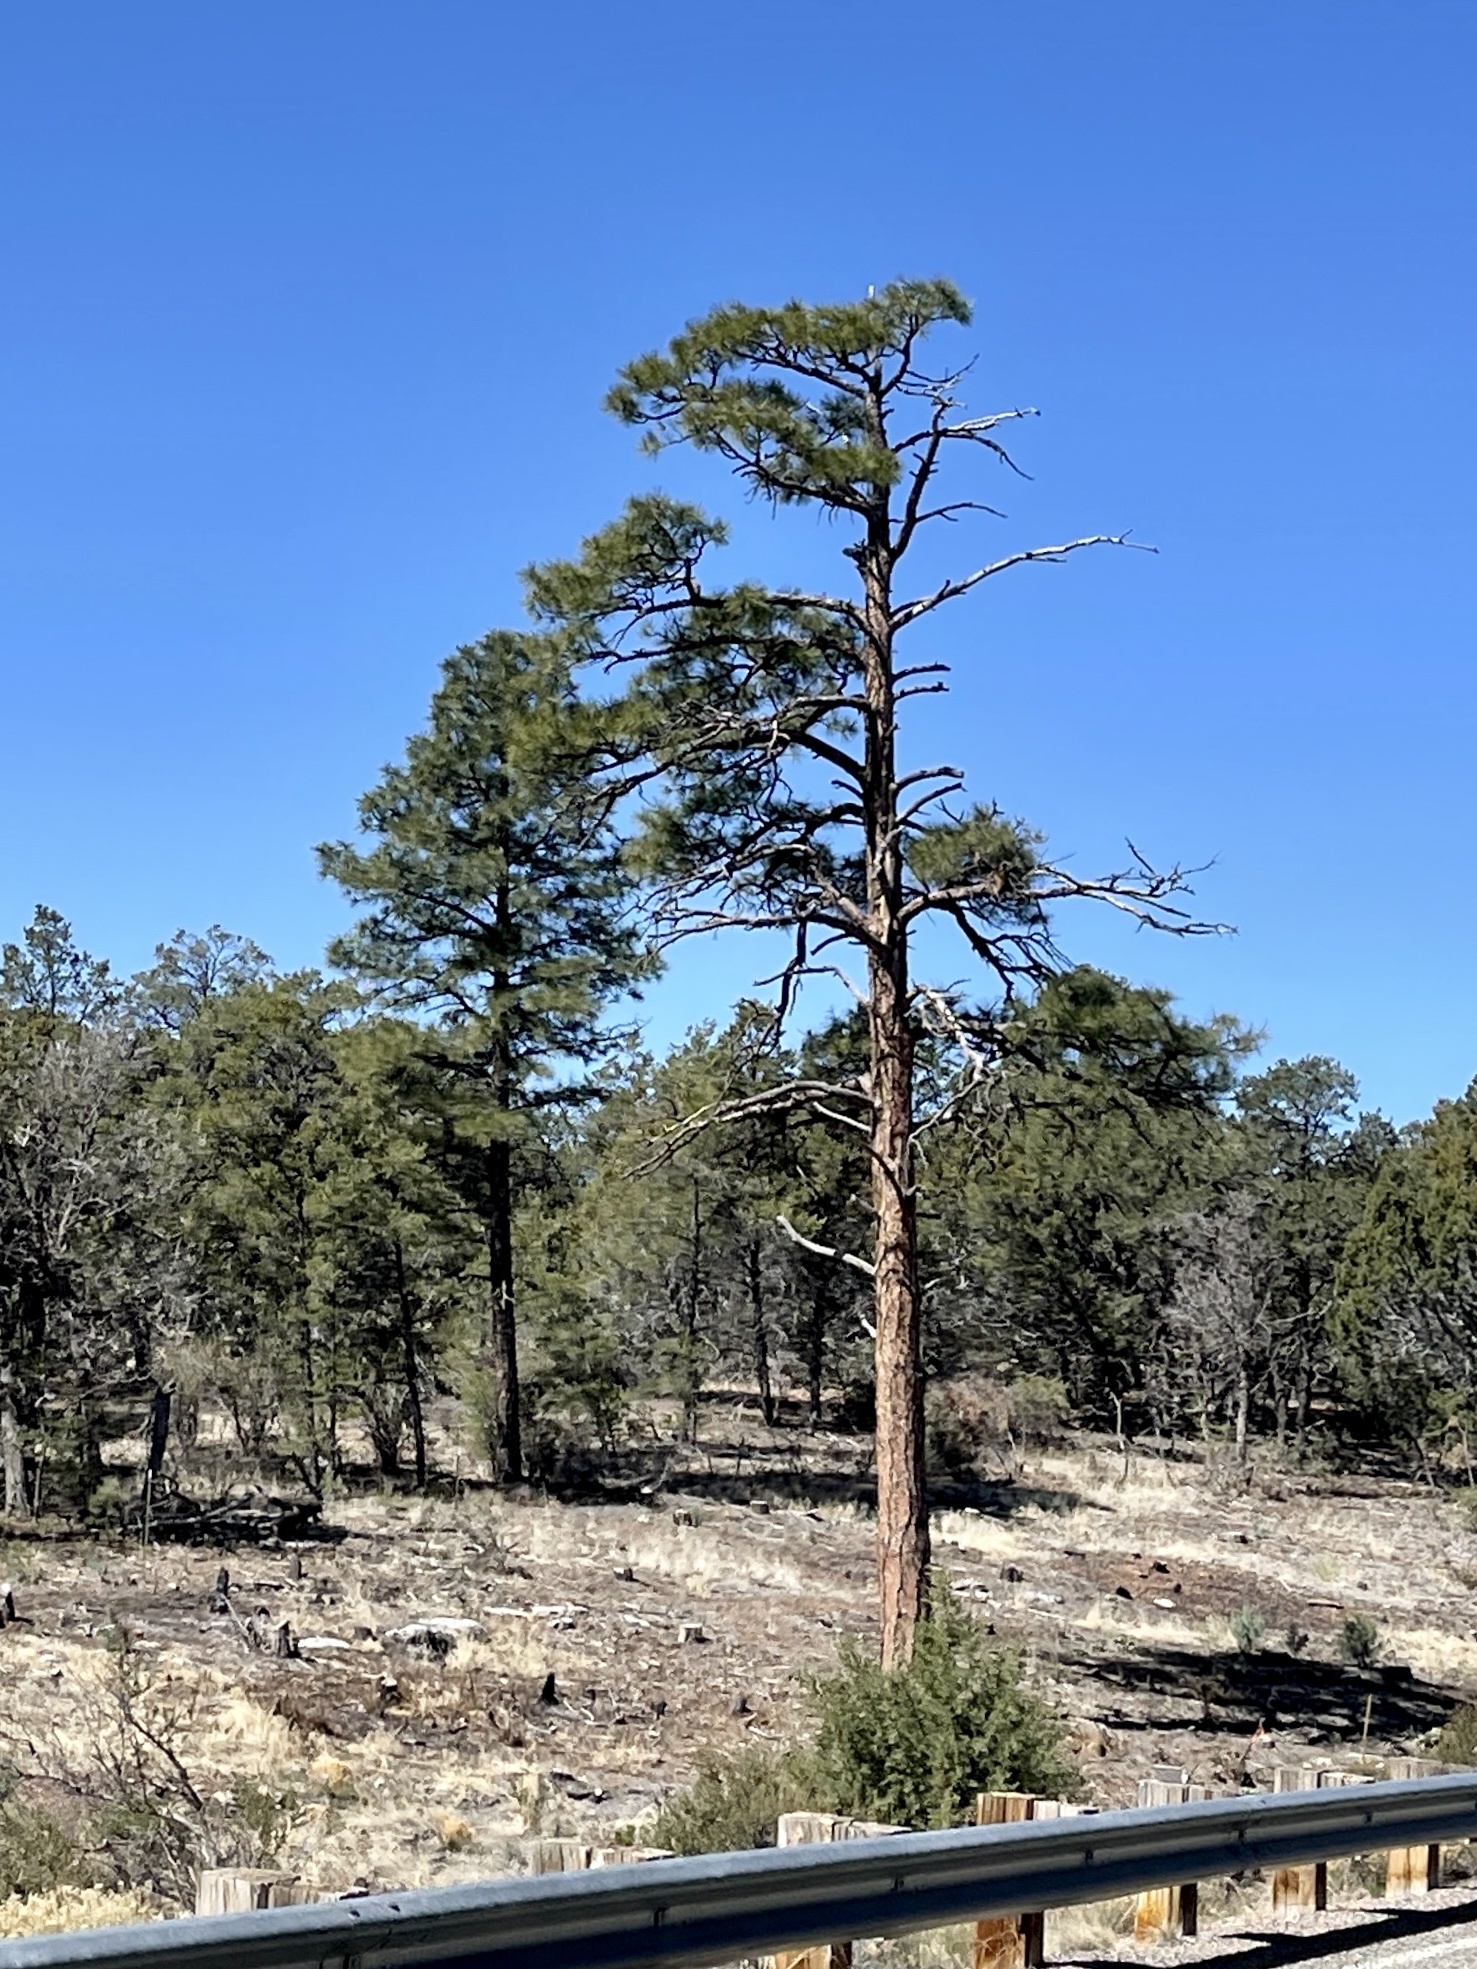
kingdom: Plantae
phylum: Tracheophyta
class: Pinopsida
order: Pinales
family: Pinaceae
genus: Pinus
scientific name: Pinus ponderosa
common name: Western yellow-pine
